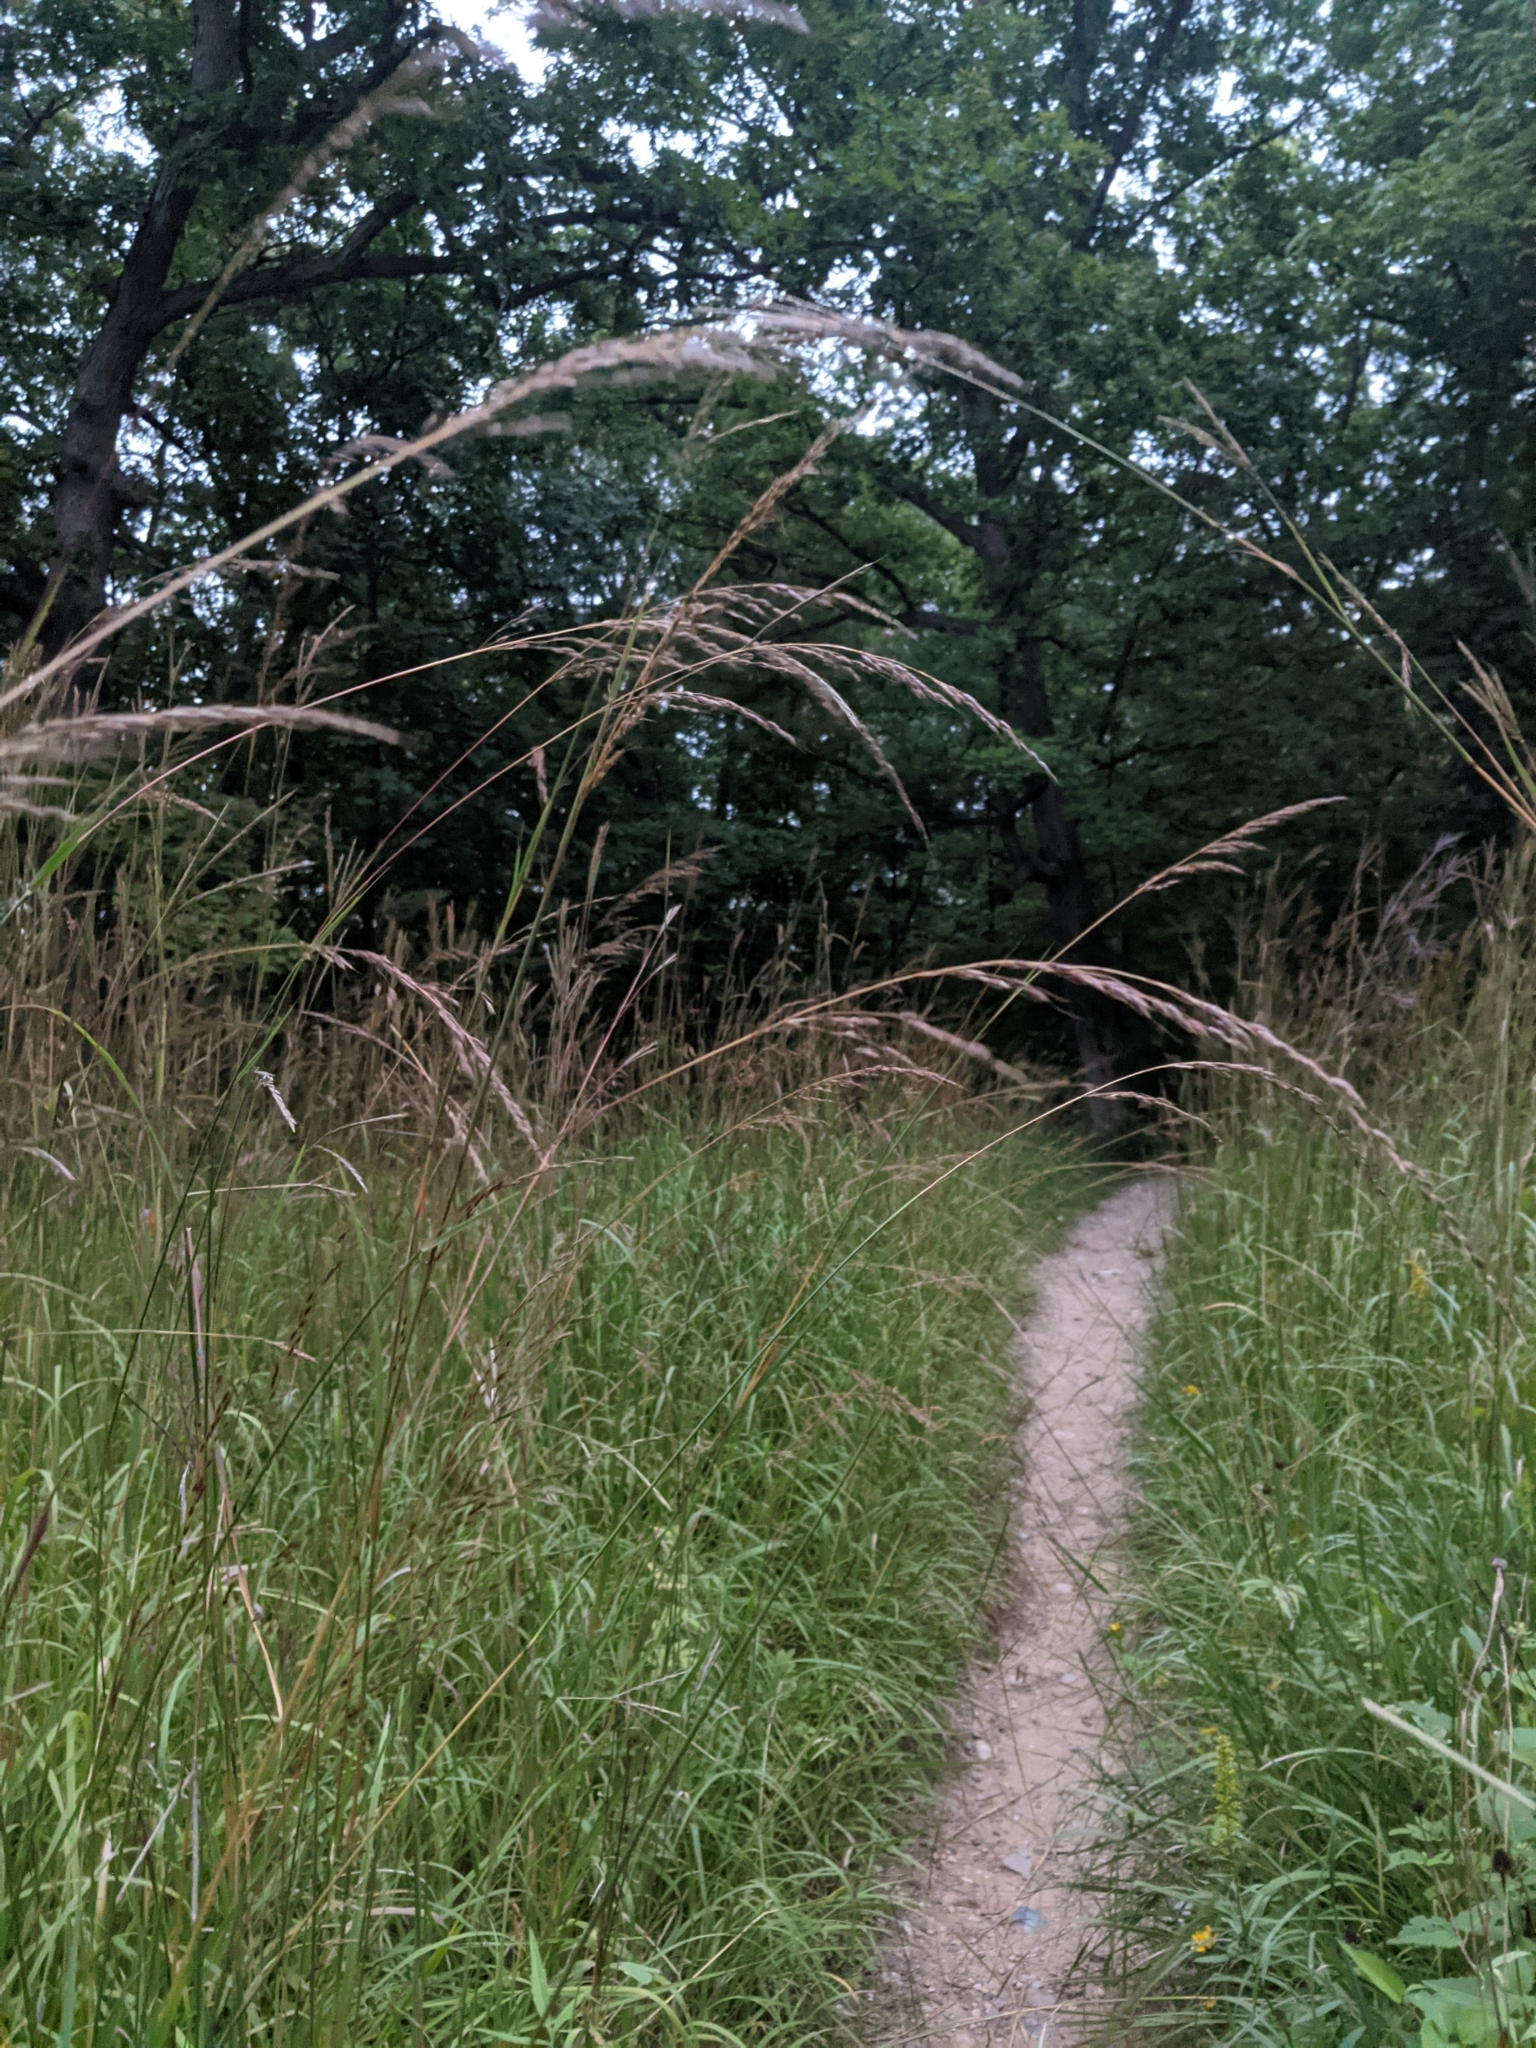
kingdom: Plantae
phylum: Tracheophyta
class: Liliopsida
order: Poales
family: Poaceae
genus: Sorghastrum
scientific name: Sorghastrum nutans
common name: Indian grass
